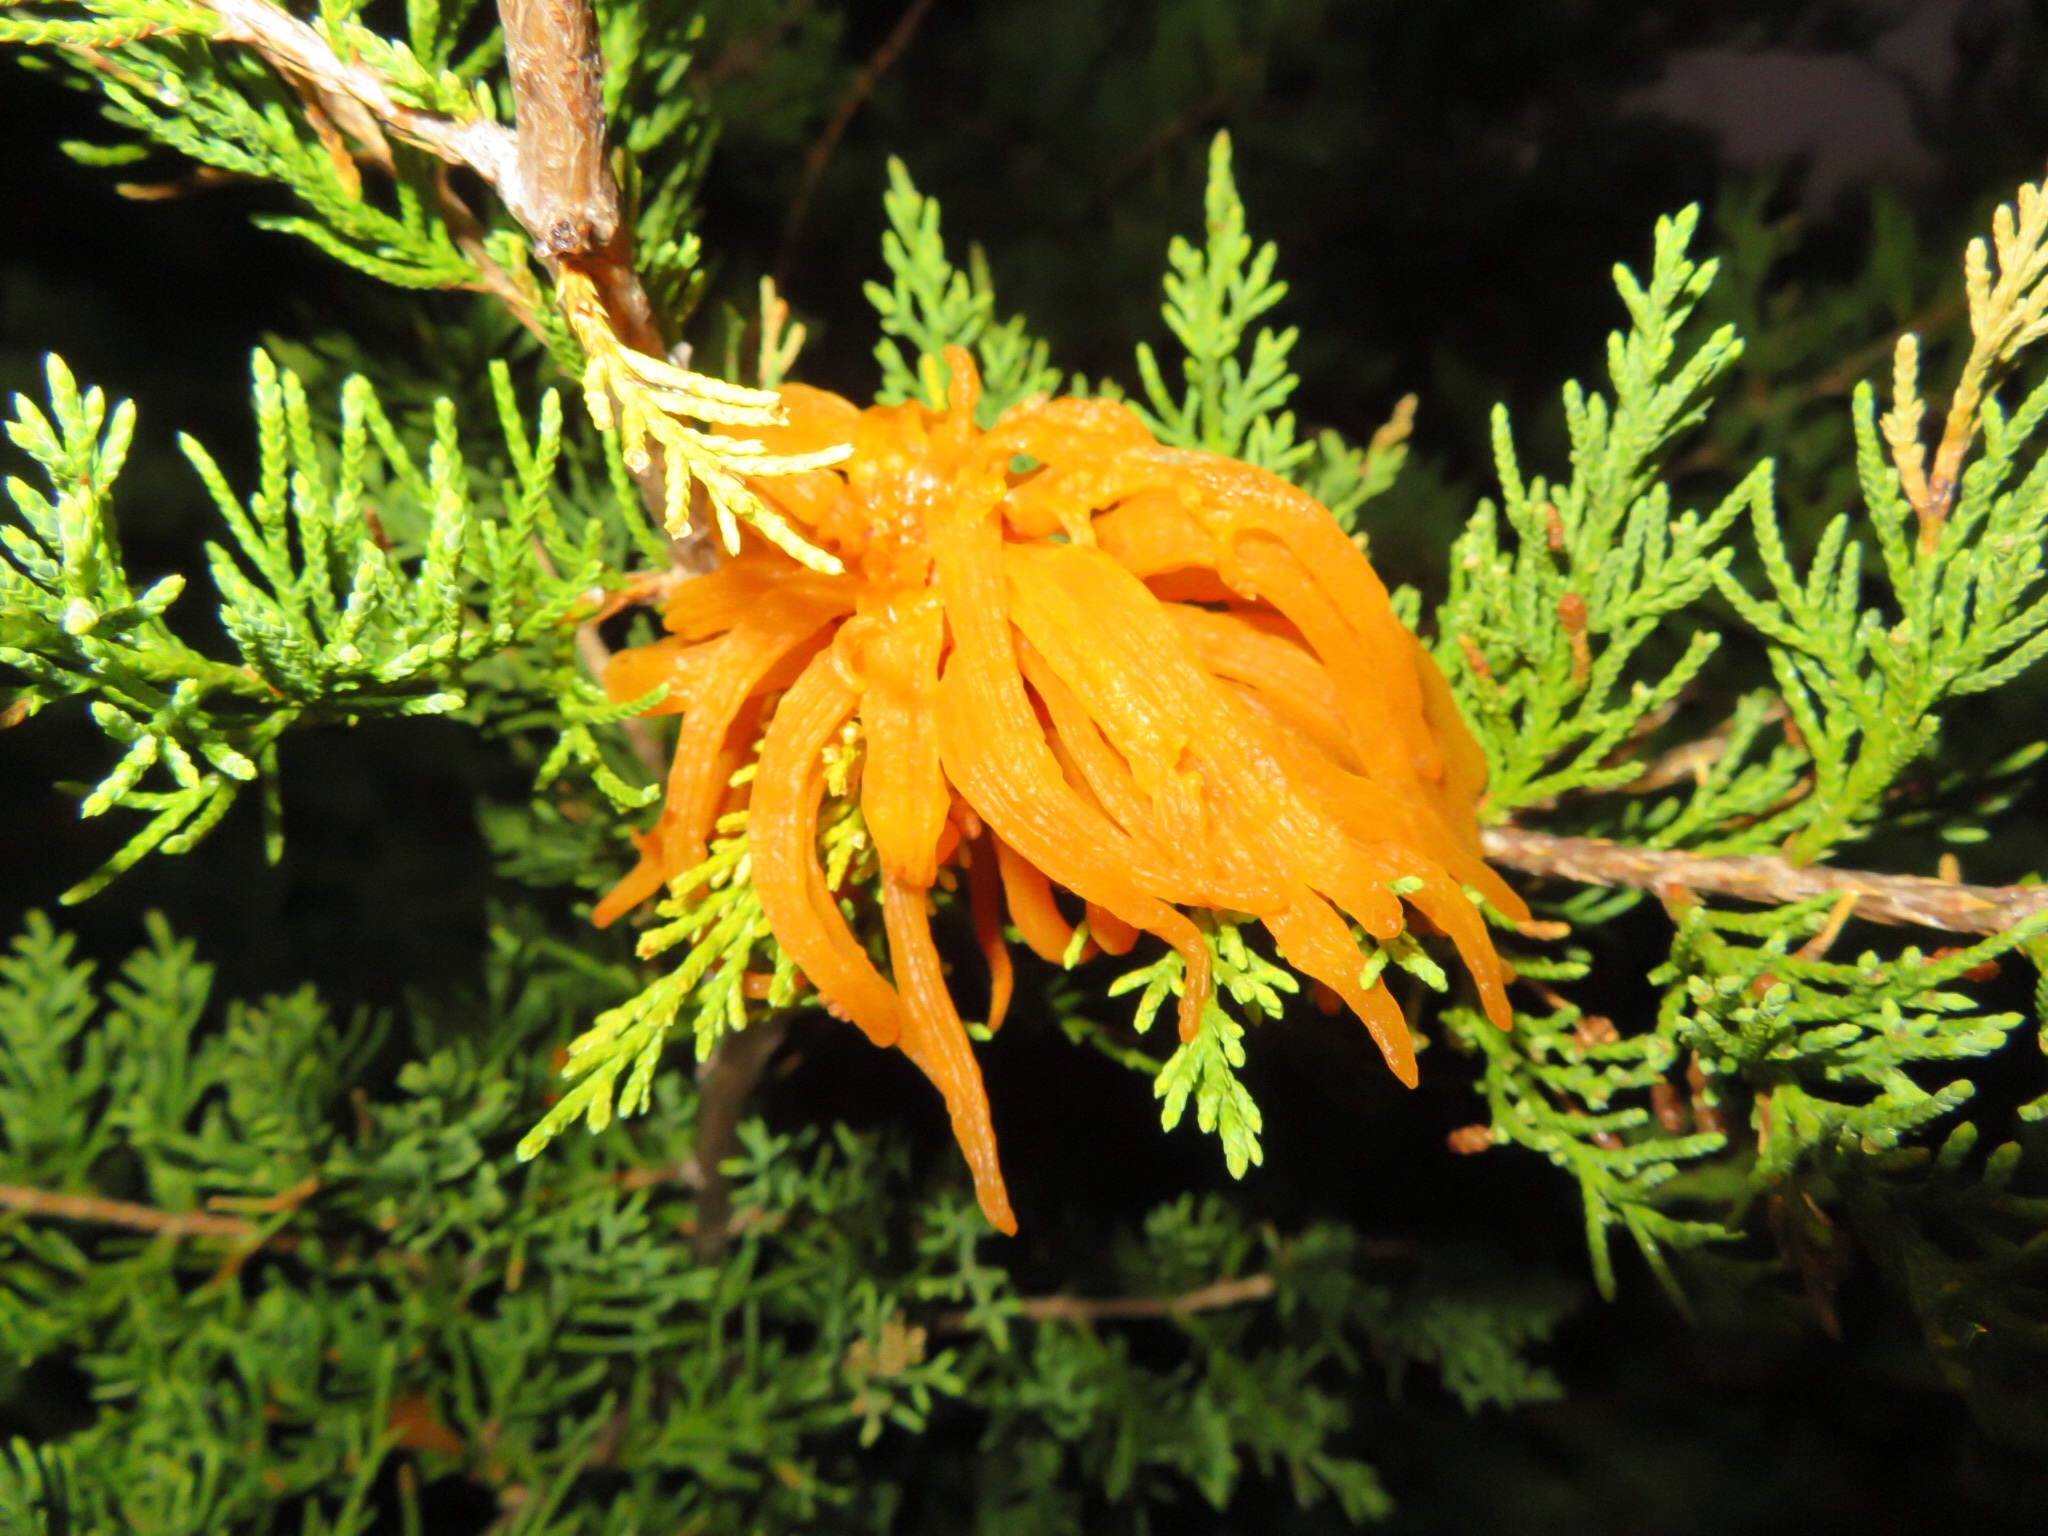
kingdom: Fungi
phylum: Basidiomycota
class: Pucciniomycetes
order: Pucciniales
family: Gymnosporangiaceae
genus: Gymnosporangium
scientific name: Gymnosporangium juniperi-virginianae
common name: Juniper-apple rust
